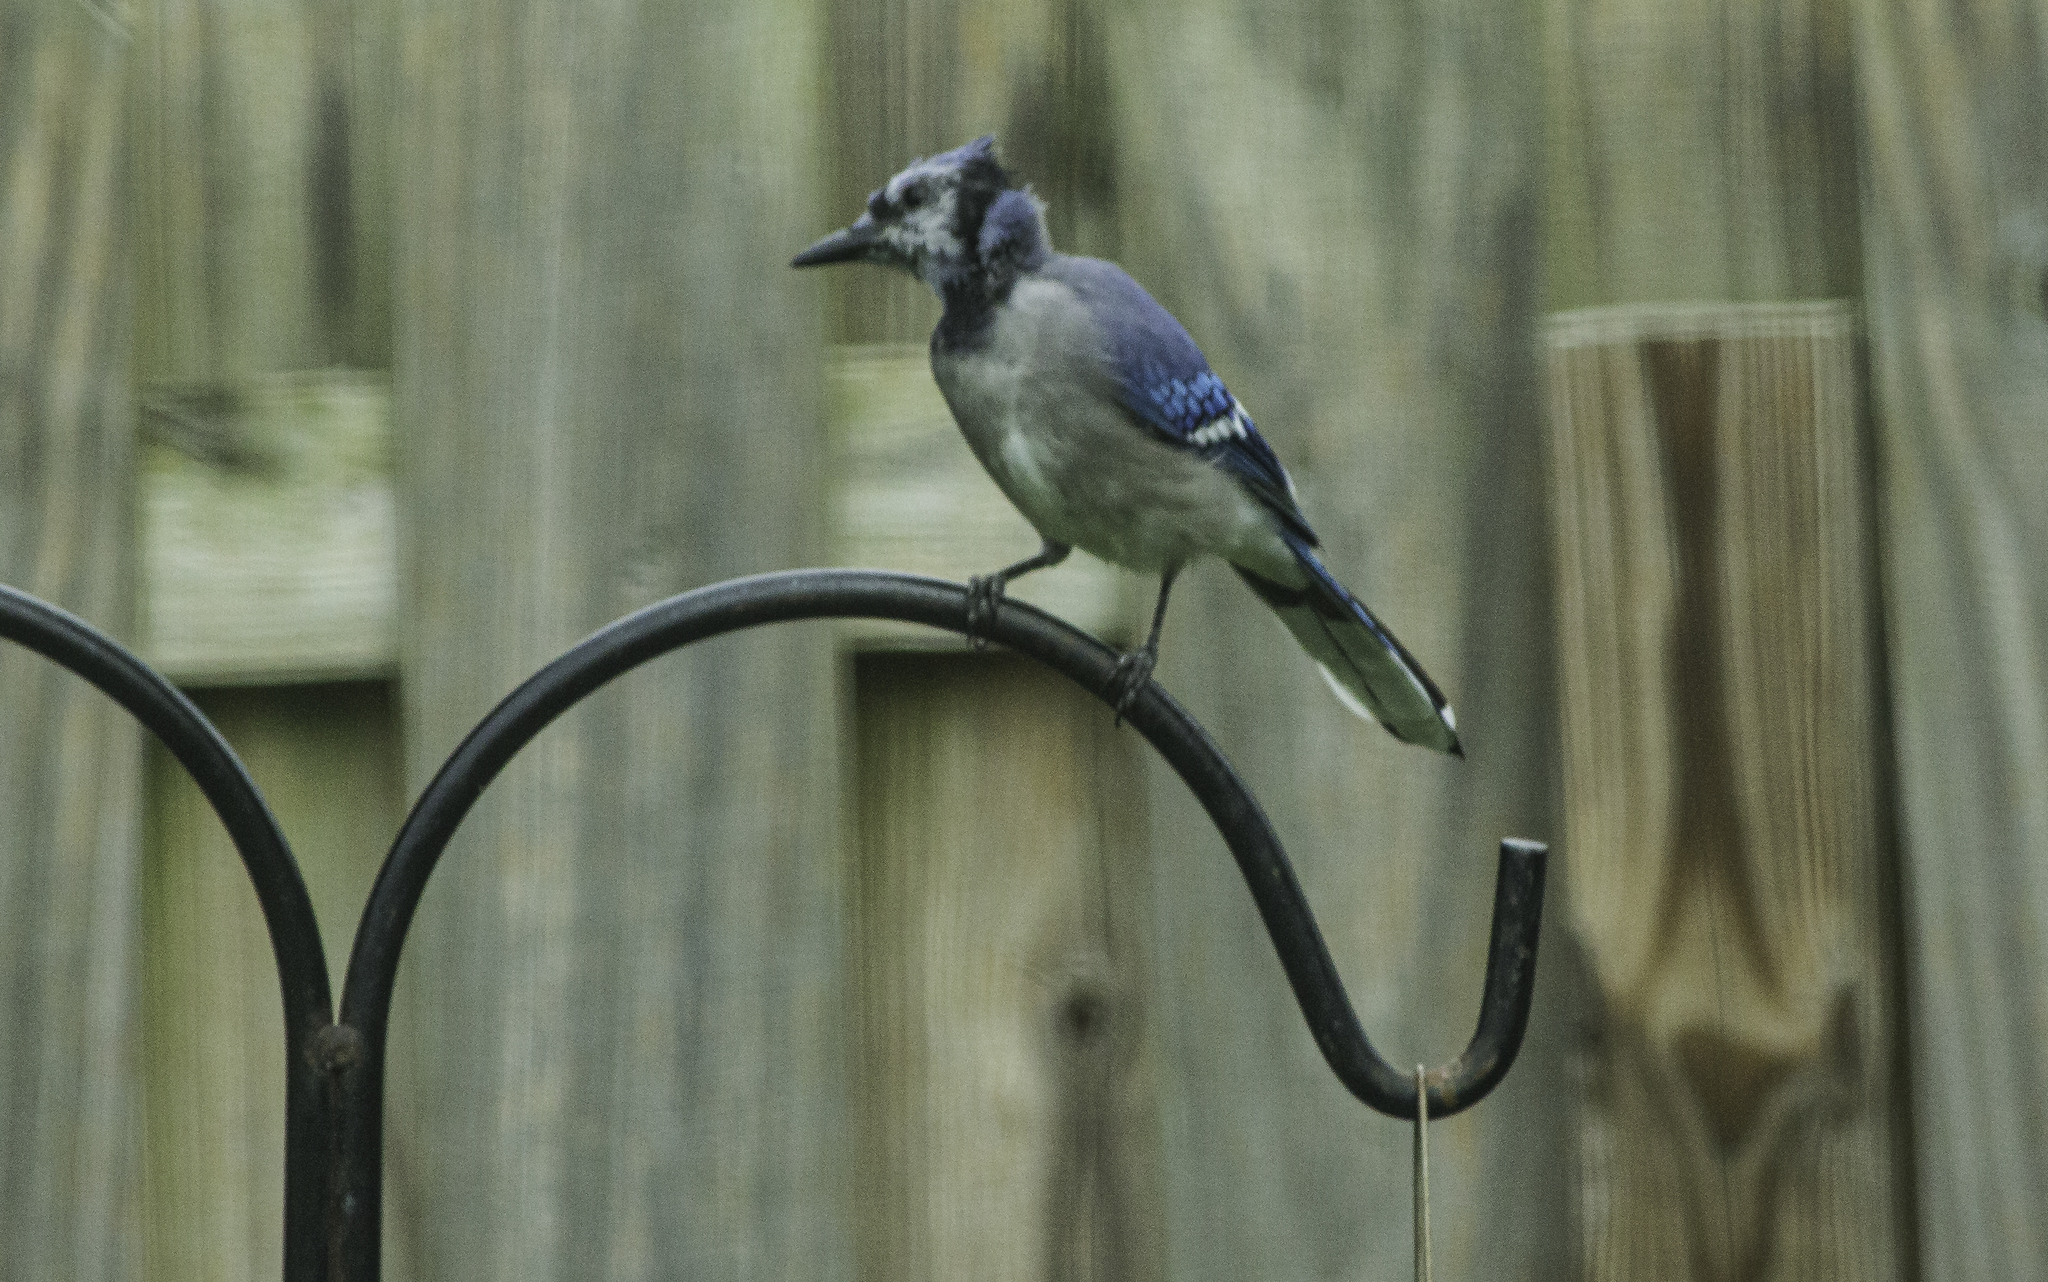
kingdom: Animalia
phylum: Chordata
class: Aves
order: Passeriformes
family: Corvidae
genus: Cyanocitta
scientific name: Cyanocitta cristata
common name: Blue jay
